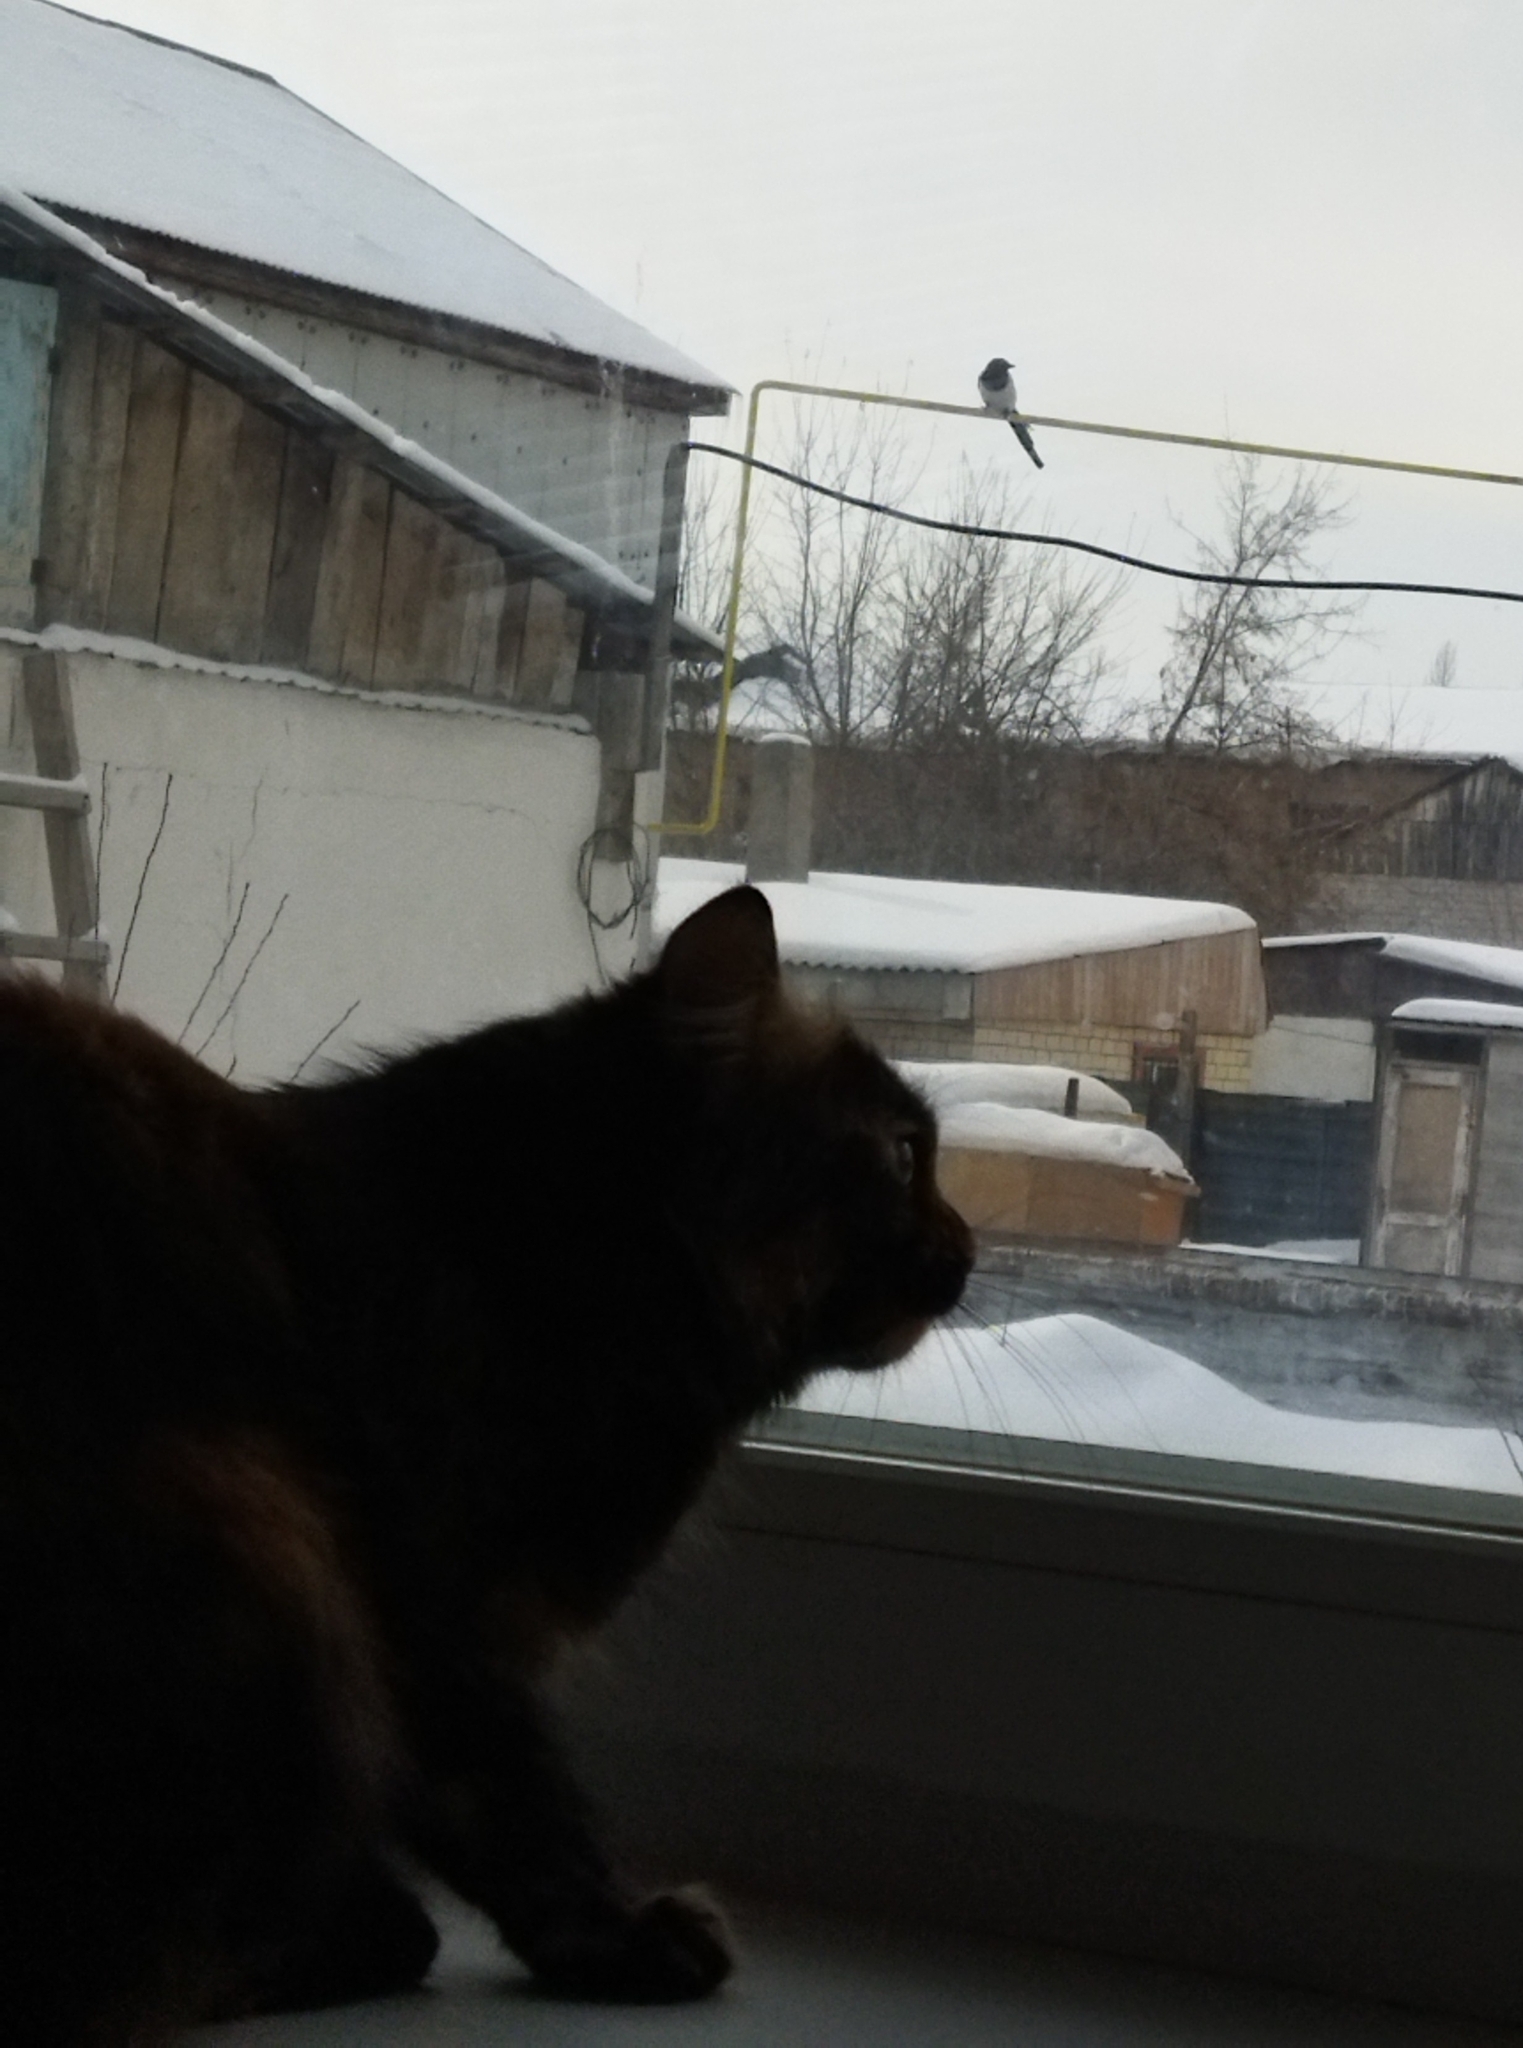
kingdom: Animalia
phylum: Chordata
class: Aves
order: Passeriformes
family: Corvidae
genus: Pica
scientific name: Pica pica
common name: Eurasian magpie
